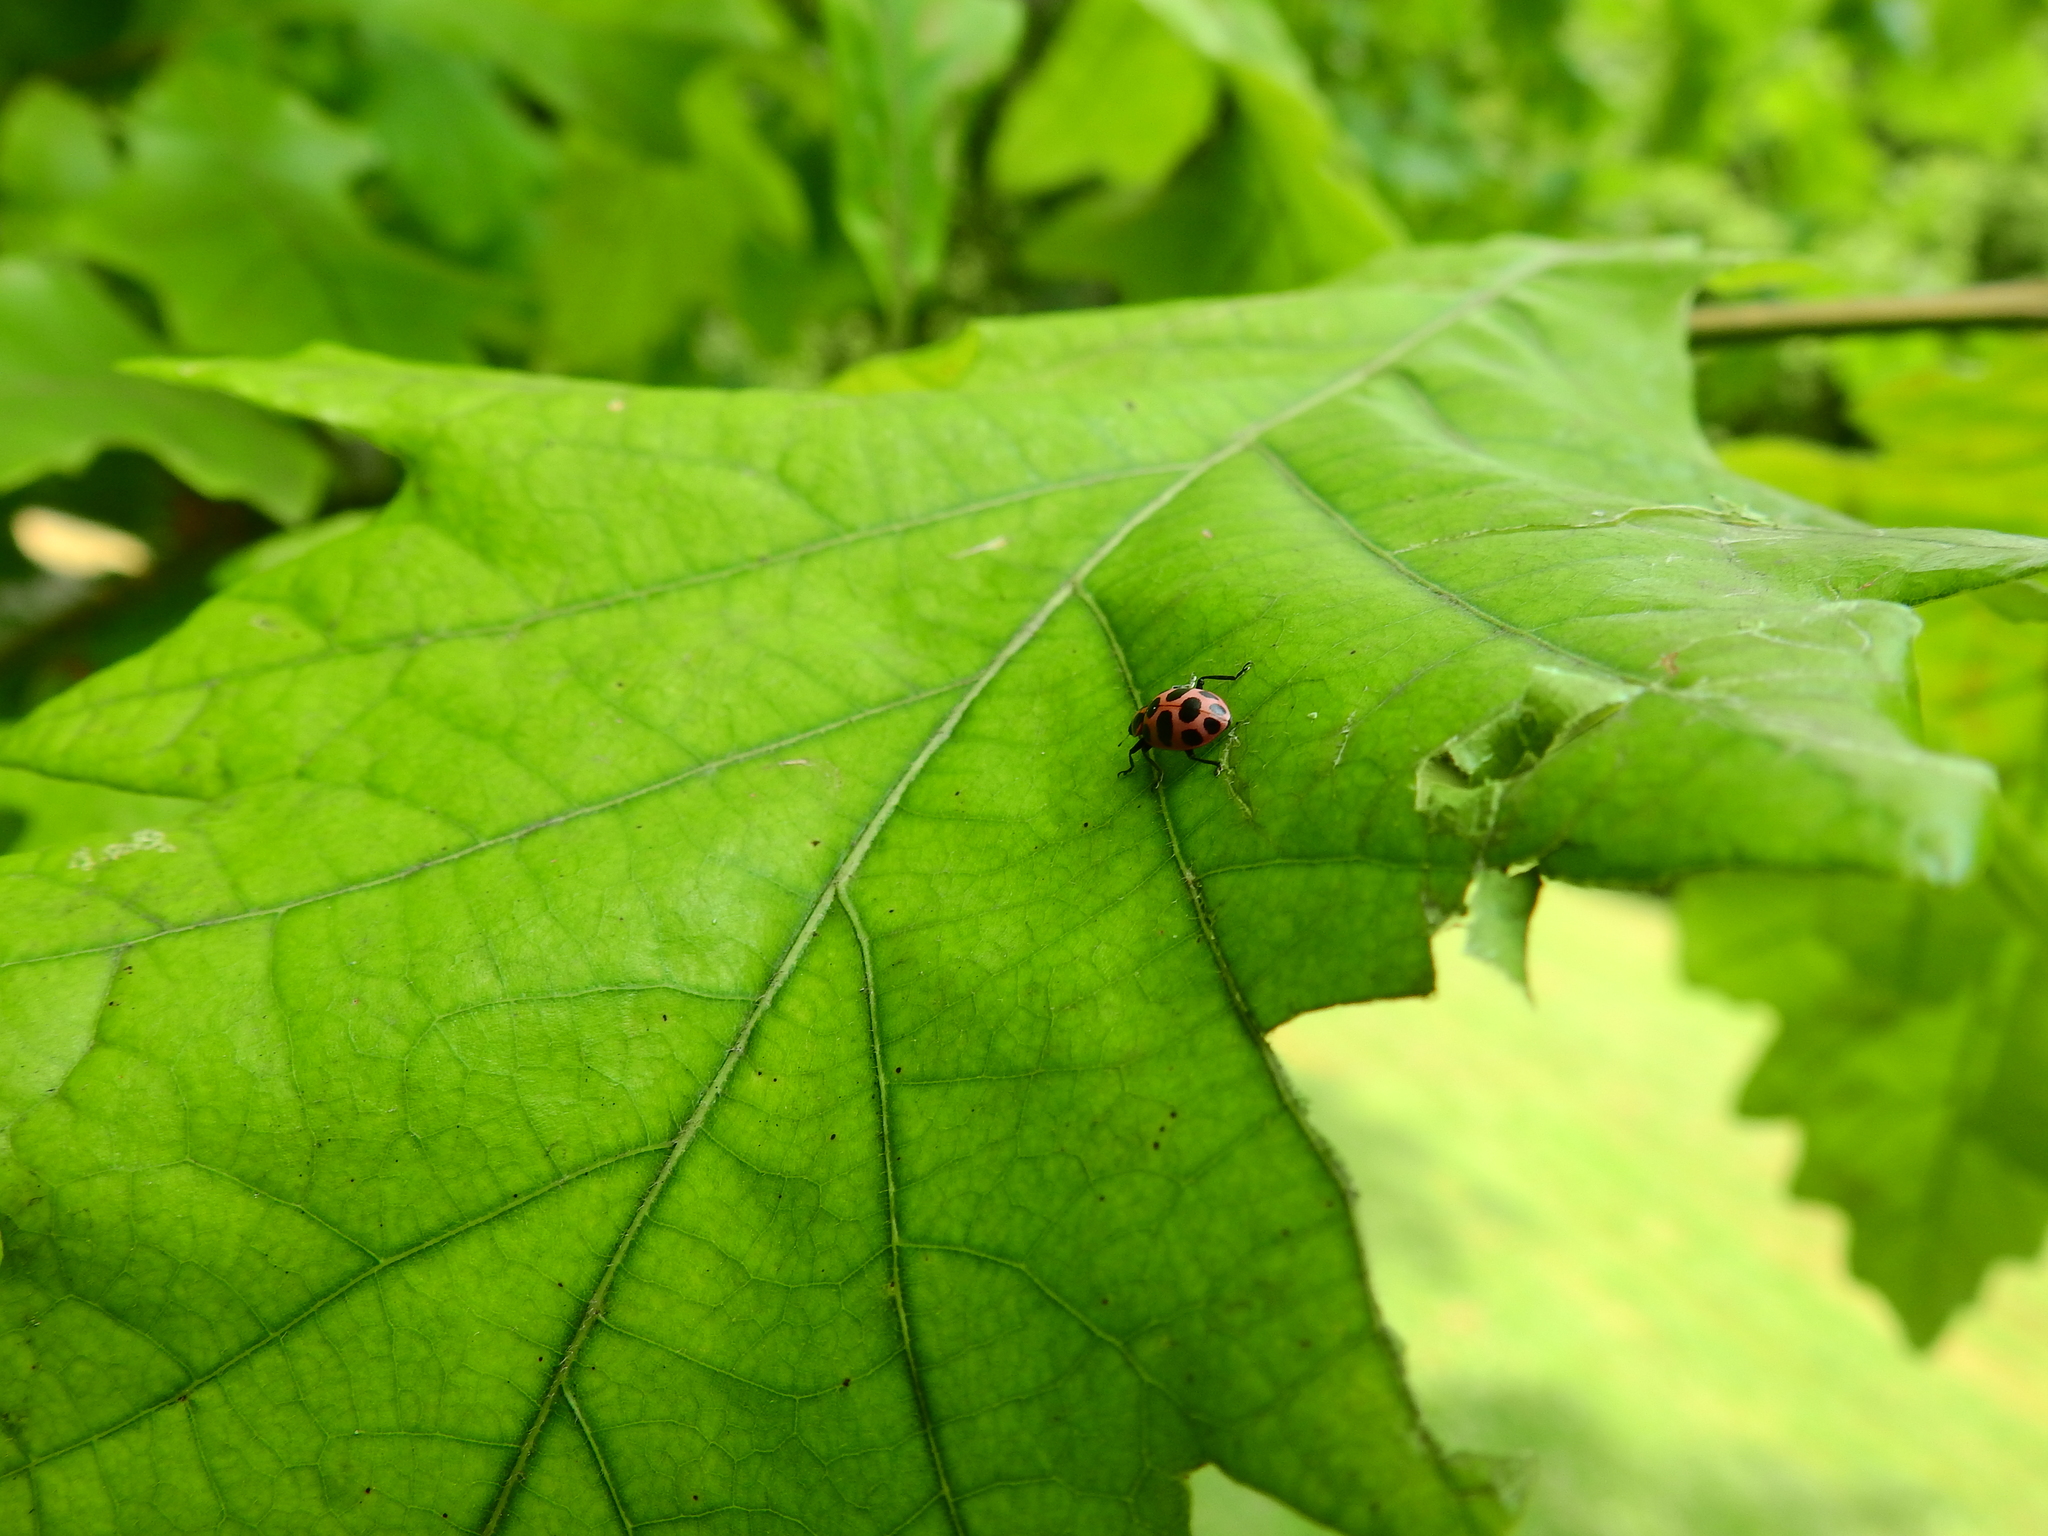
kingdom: Animalia
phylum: Arthropoda
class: Insecta
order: Coleoptera
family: Coccinellidae
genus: Coleomegilla
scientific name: Coleomegilla maculata
